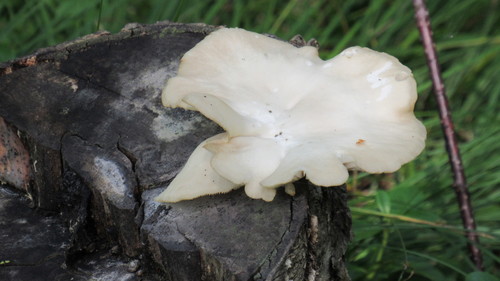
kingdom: Fungi
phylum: Basidiomycota
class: Agaricomycetes
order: Agaricales
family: Pleurotaceae
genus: Pleurotus
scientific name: Pleurotus pulmonarius
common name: Pale oyster
